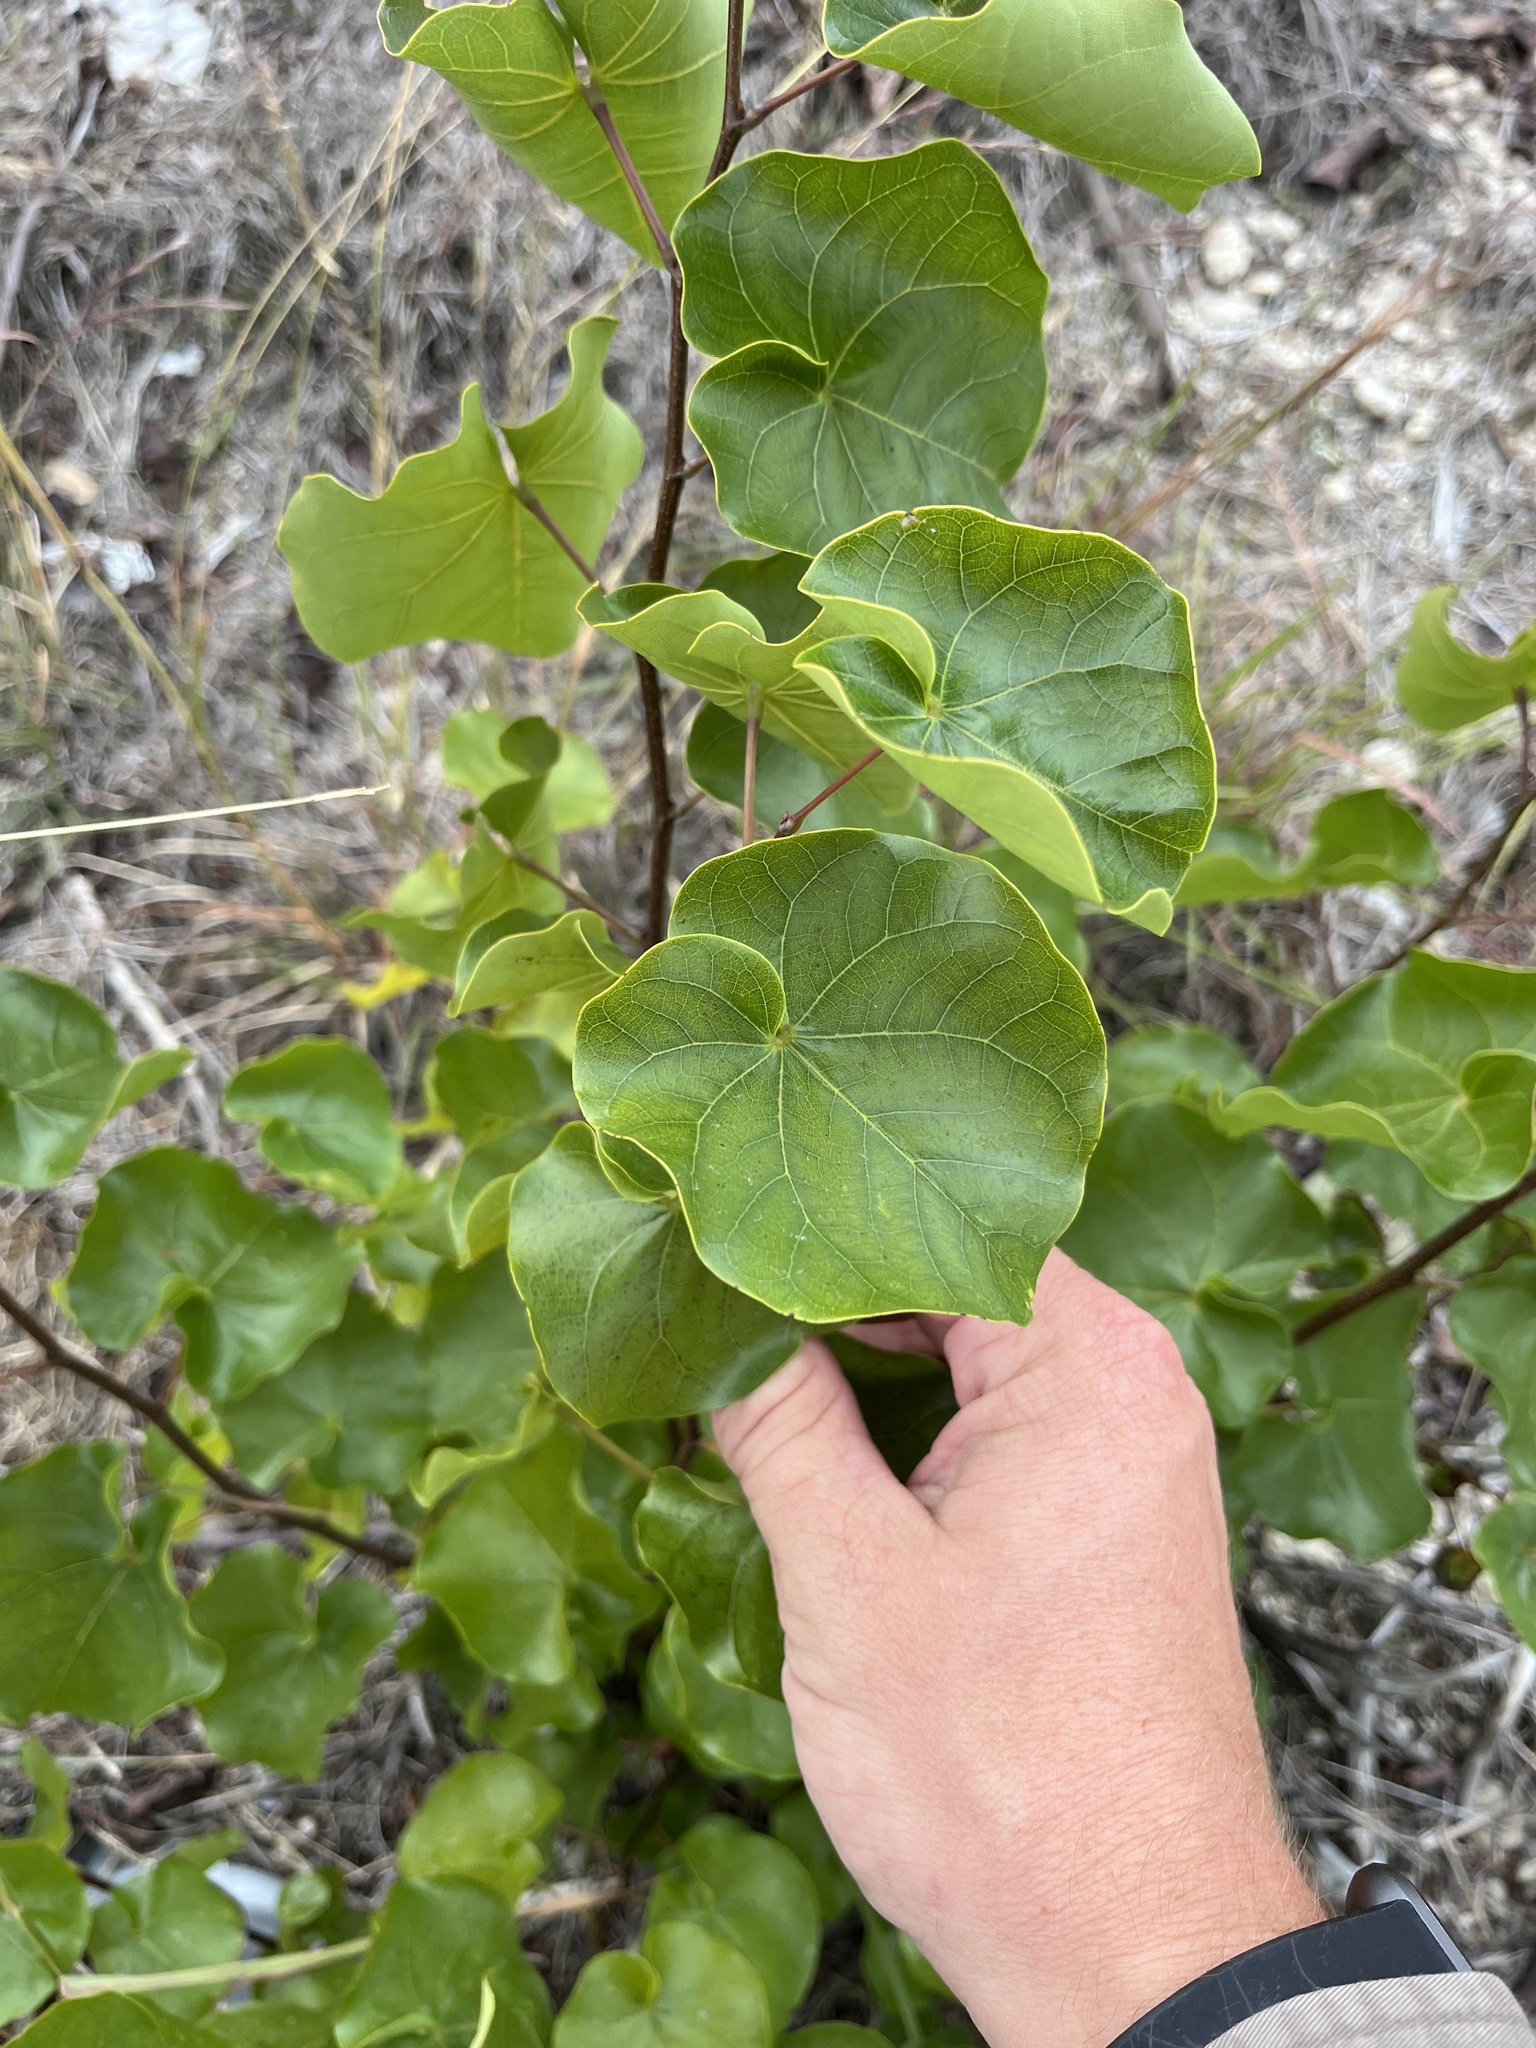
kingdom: Plantae
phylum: Tracheophyta
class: Magnoliopsida
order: Fabales
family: Fabaceae
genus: Cercis
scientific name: Cercis canadensis
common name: Eastern redbud
